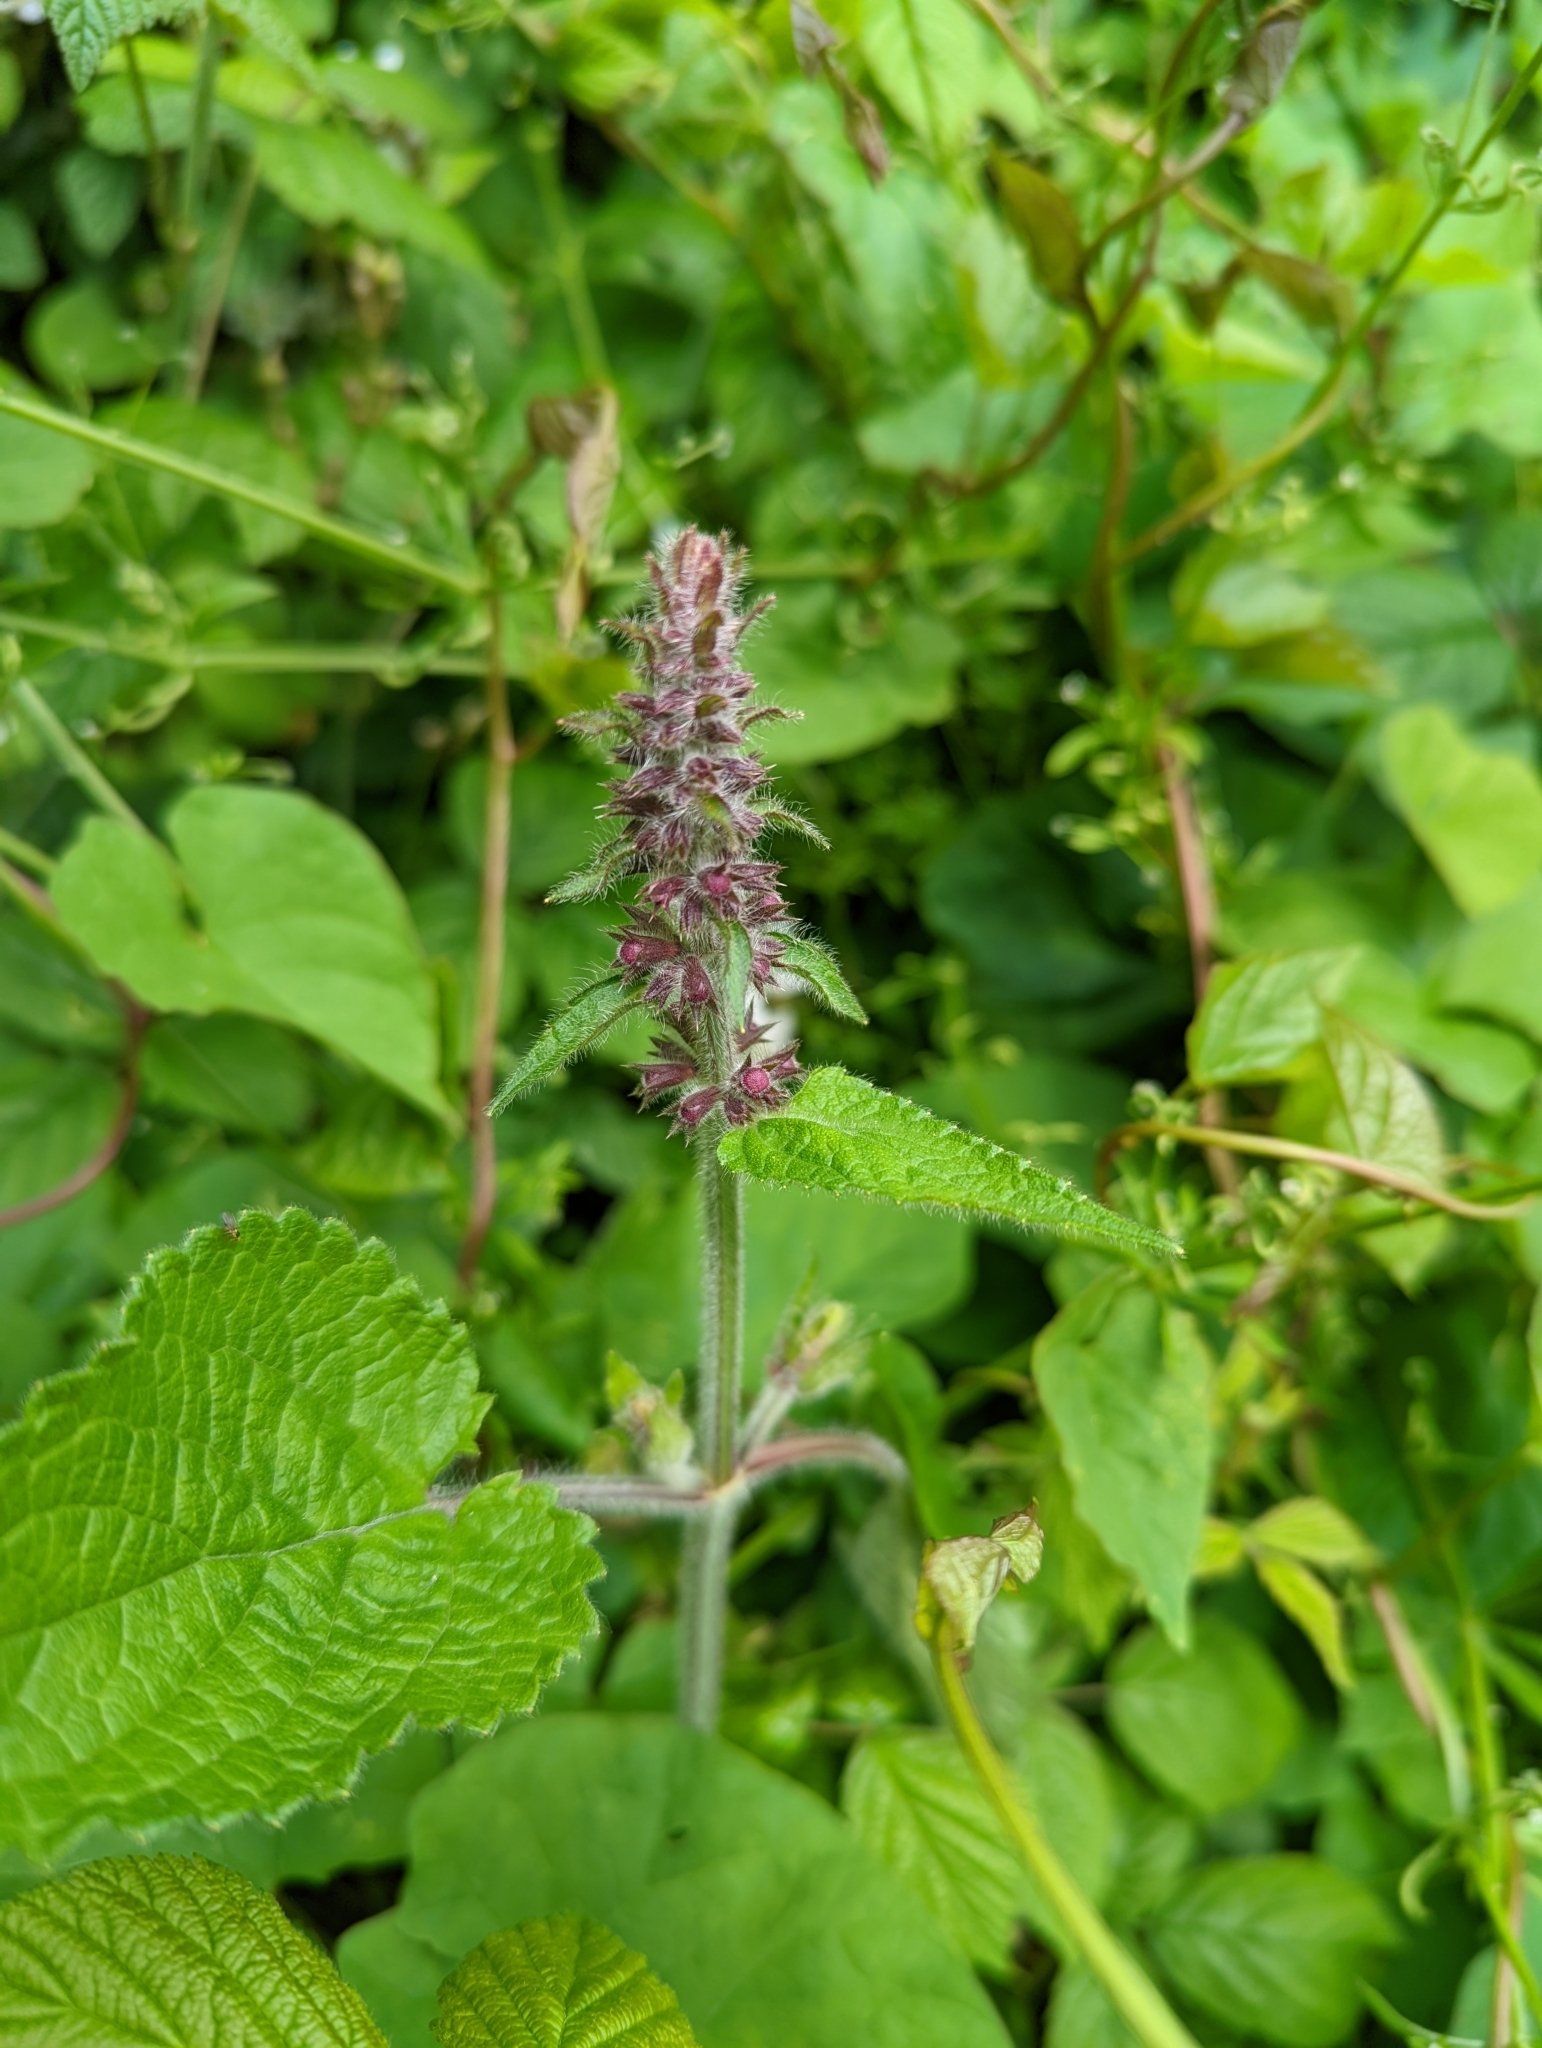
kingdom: Plantae
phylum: Tracheophyta
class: Magnoliopsida
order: Lamiales
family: Lamiaceae
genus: Stachys
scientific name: Stachys sylvatica
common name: Hedge woundwort
